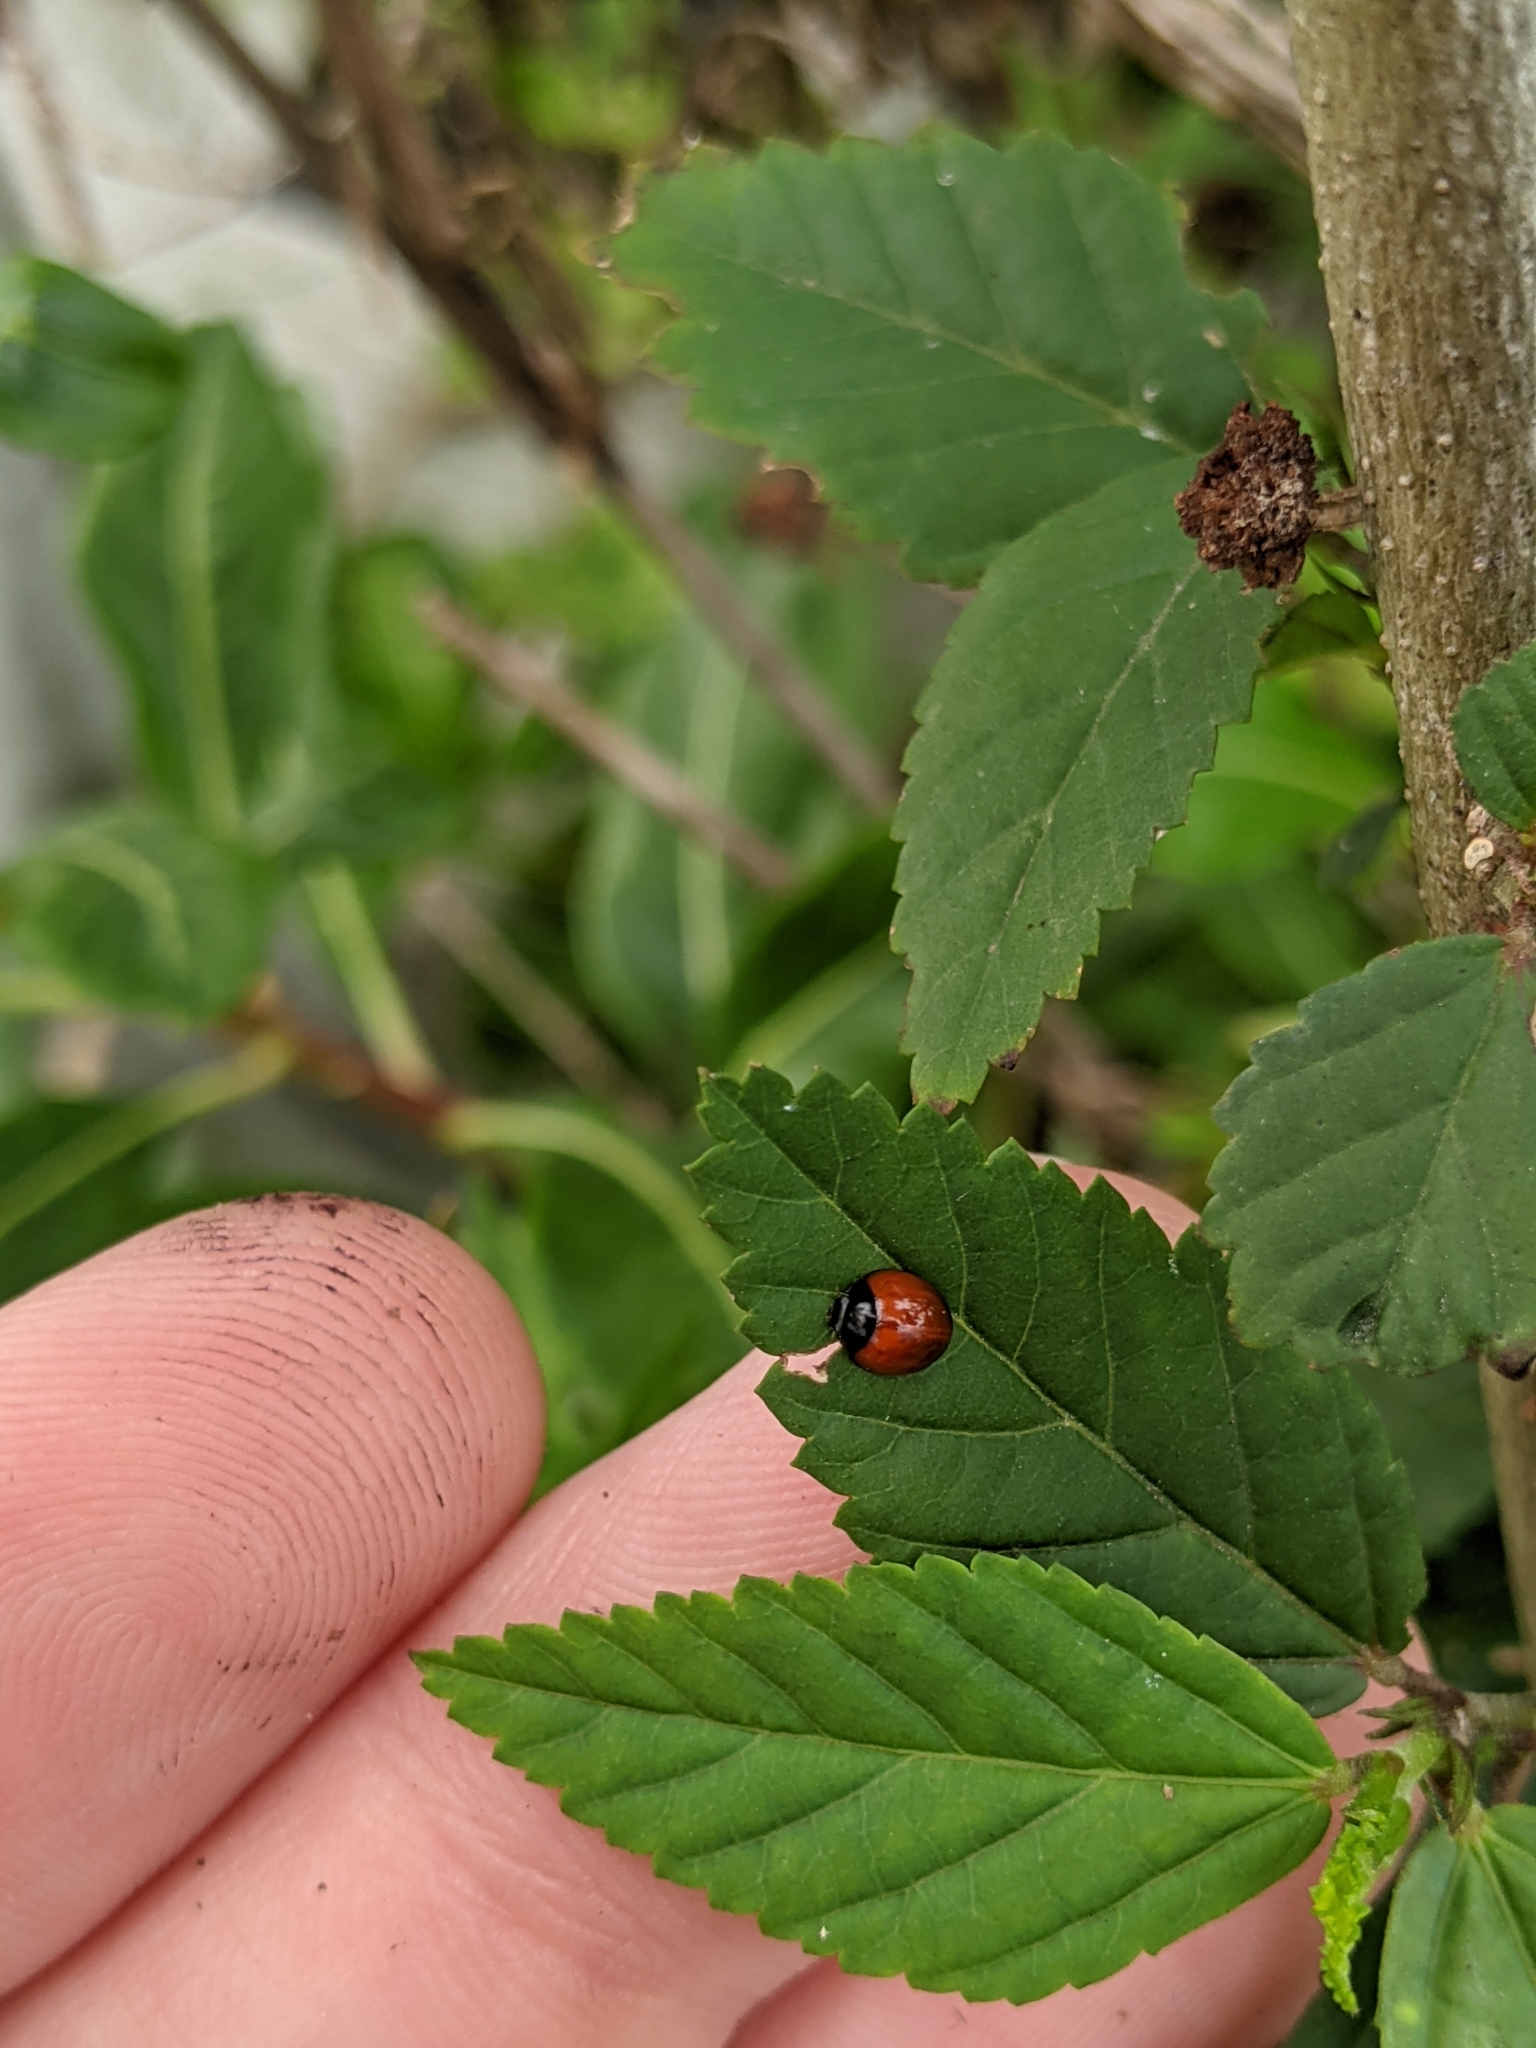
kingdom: Animalia
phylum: Arthropoda
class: Insecta
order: Coleoptera
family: Coccinellidae
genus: Exochomus
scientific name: Exochomus childreni
